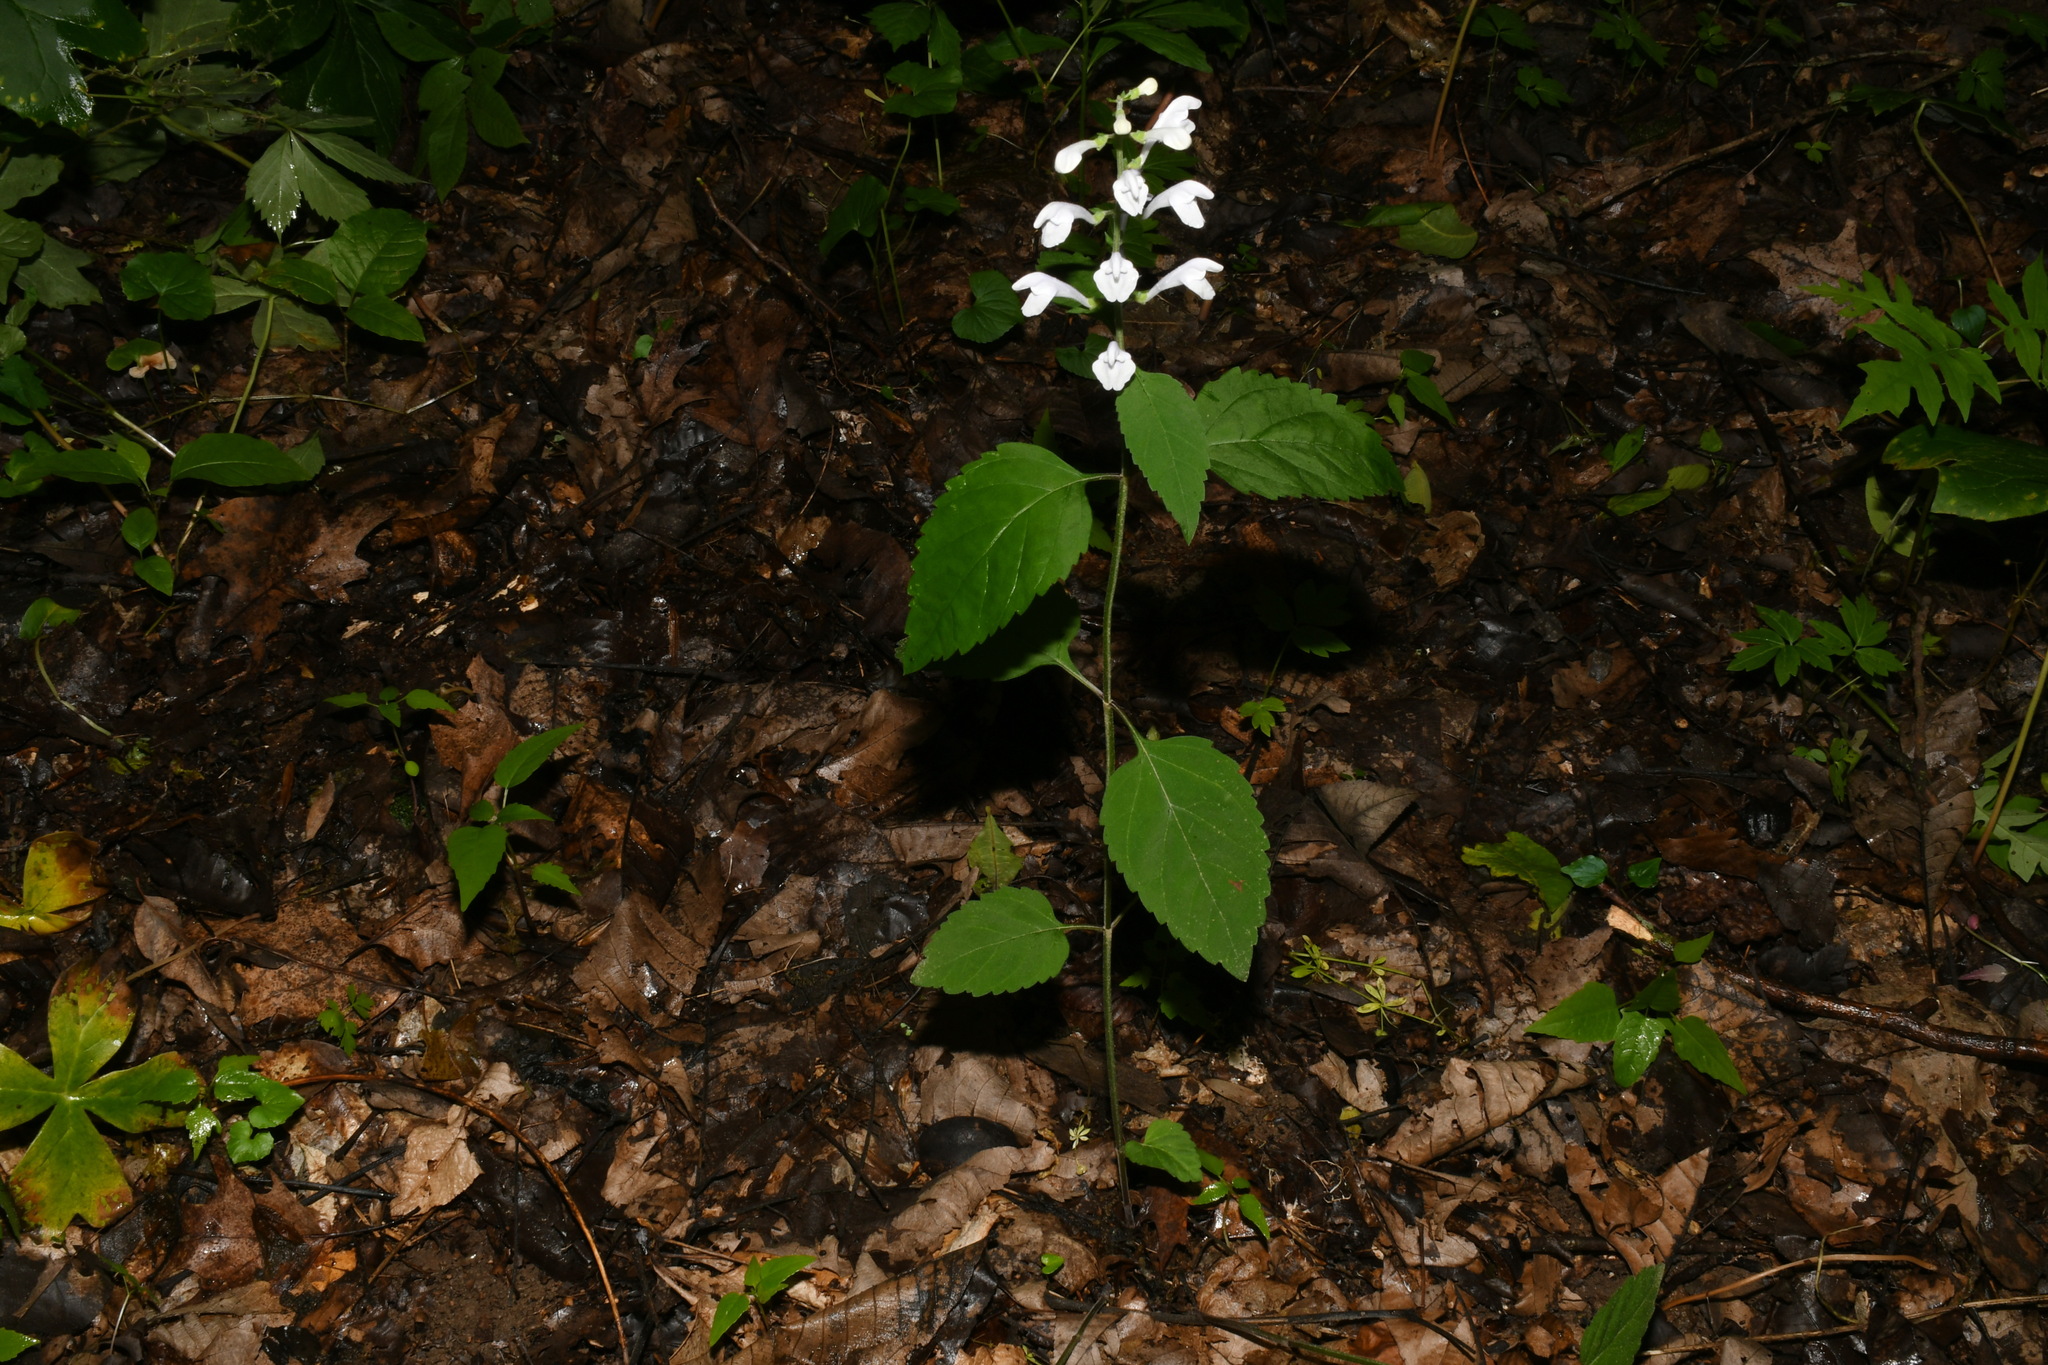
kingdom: Plantae
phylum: Tracheophyta
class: Magnoliopsida
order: Lamiales
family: Lamiaceae
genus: Scutellaria
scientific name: Scutellaria pseudoserrata
